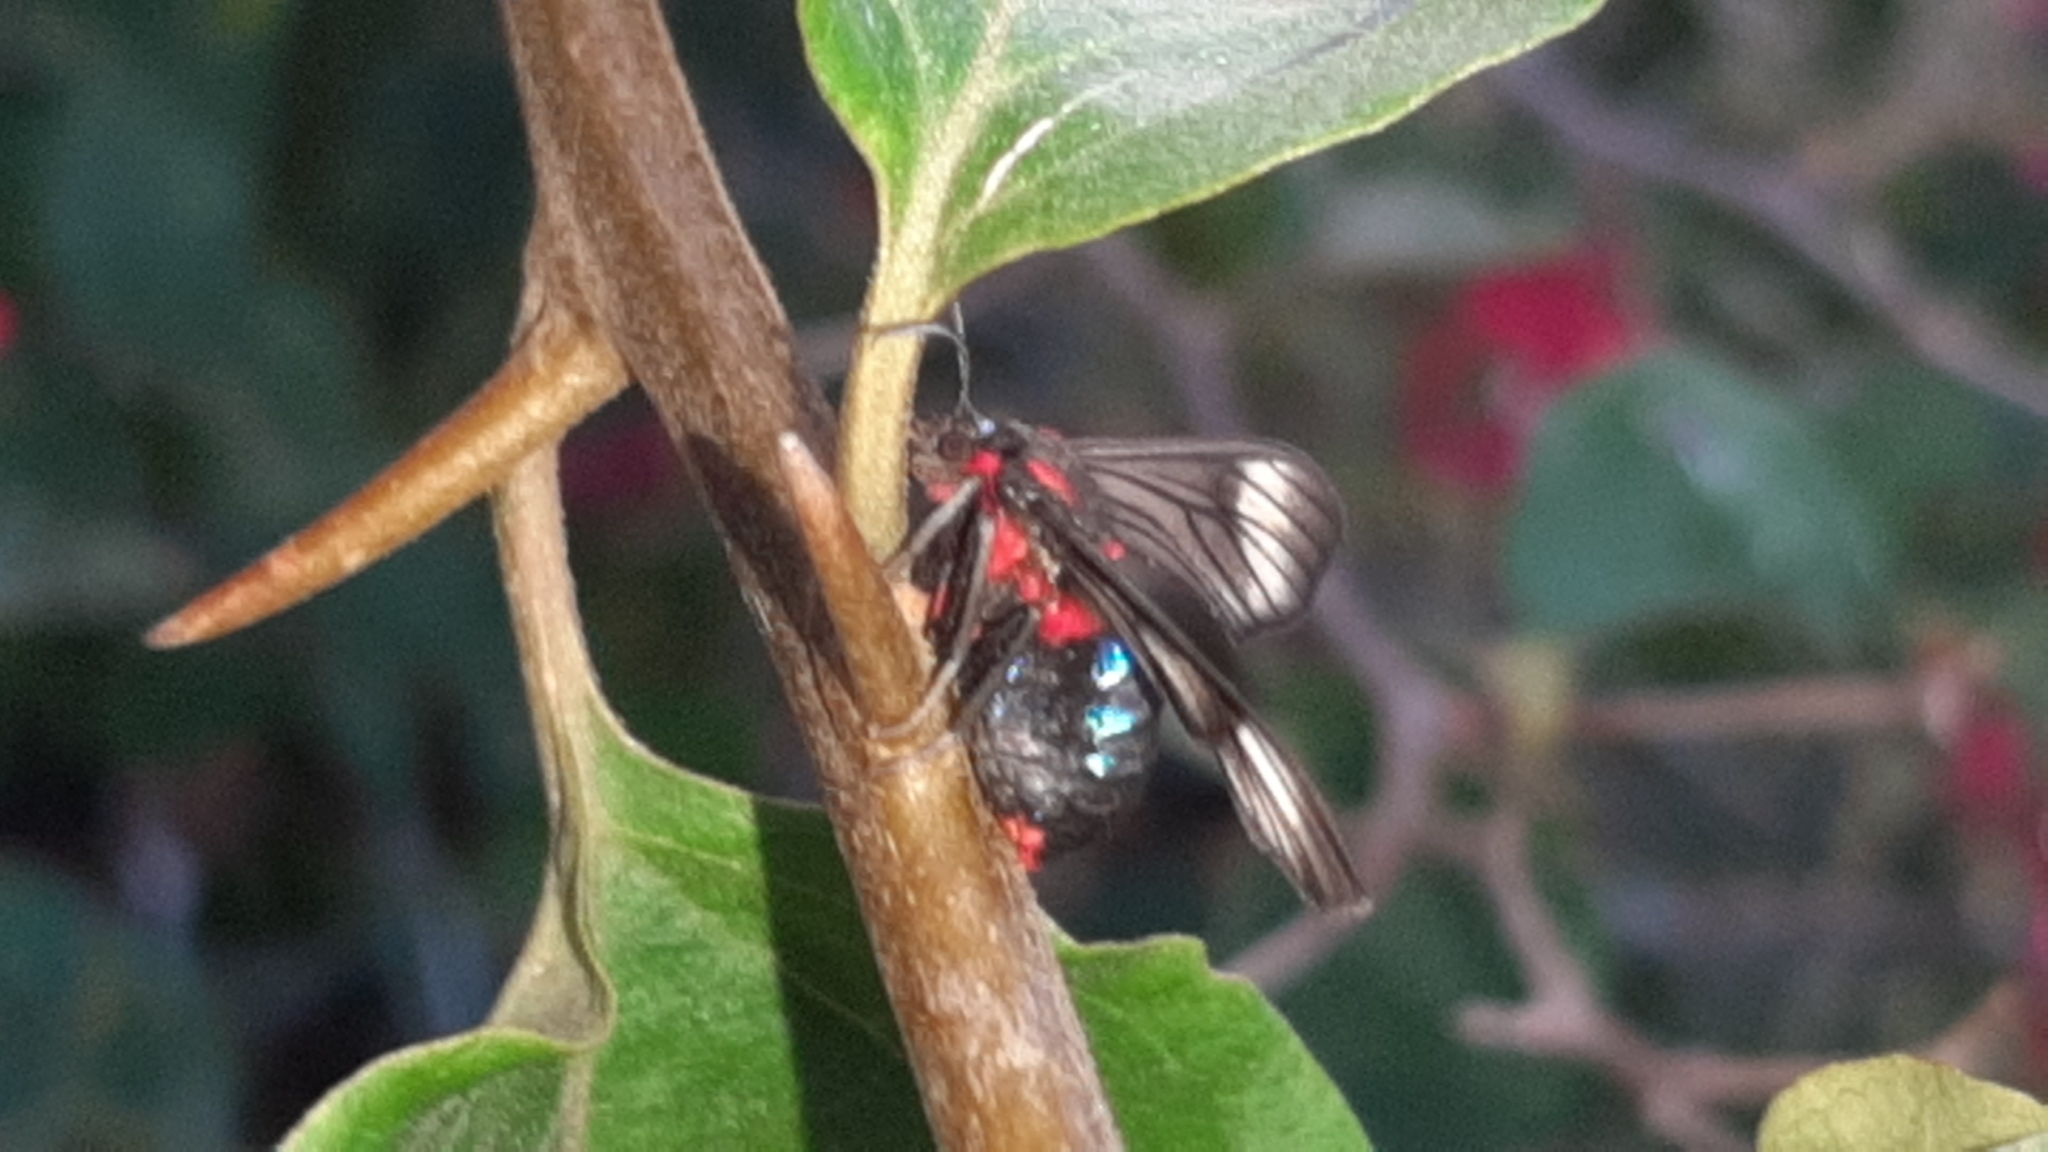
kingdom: Animalia
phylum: Arthropoda
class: Insecta
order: Lepidoptera
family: Erebidae
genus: Saurita
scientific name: Saurita nigripalpia
